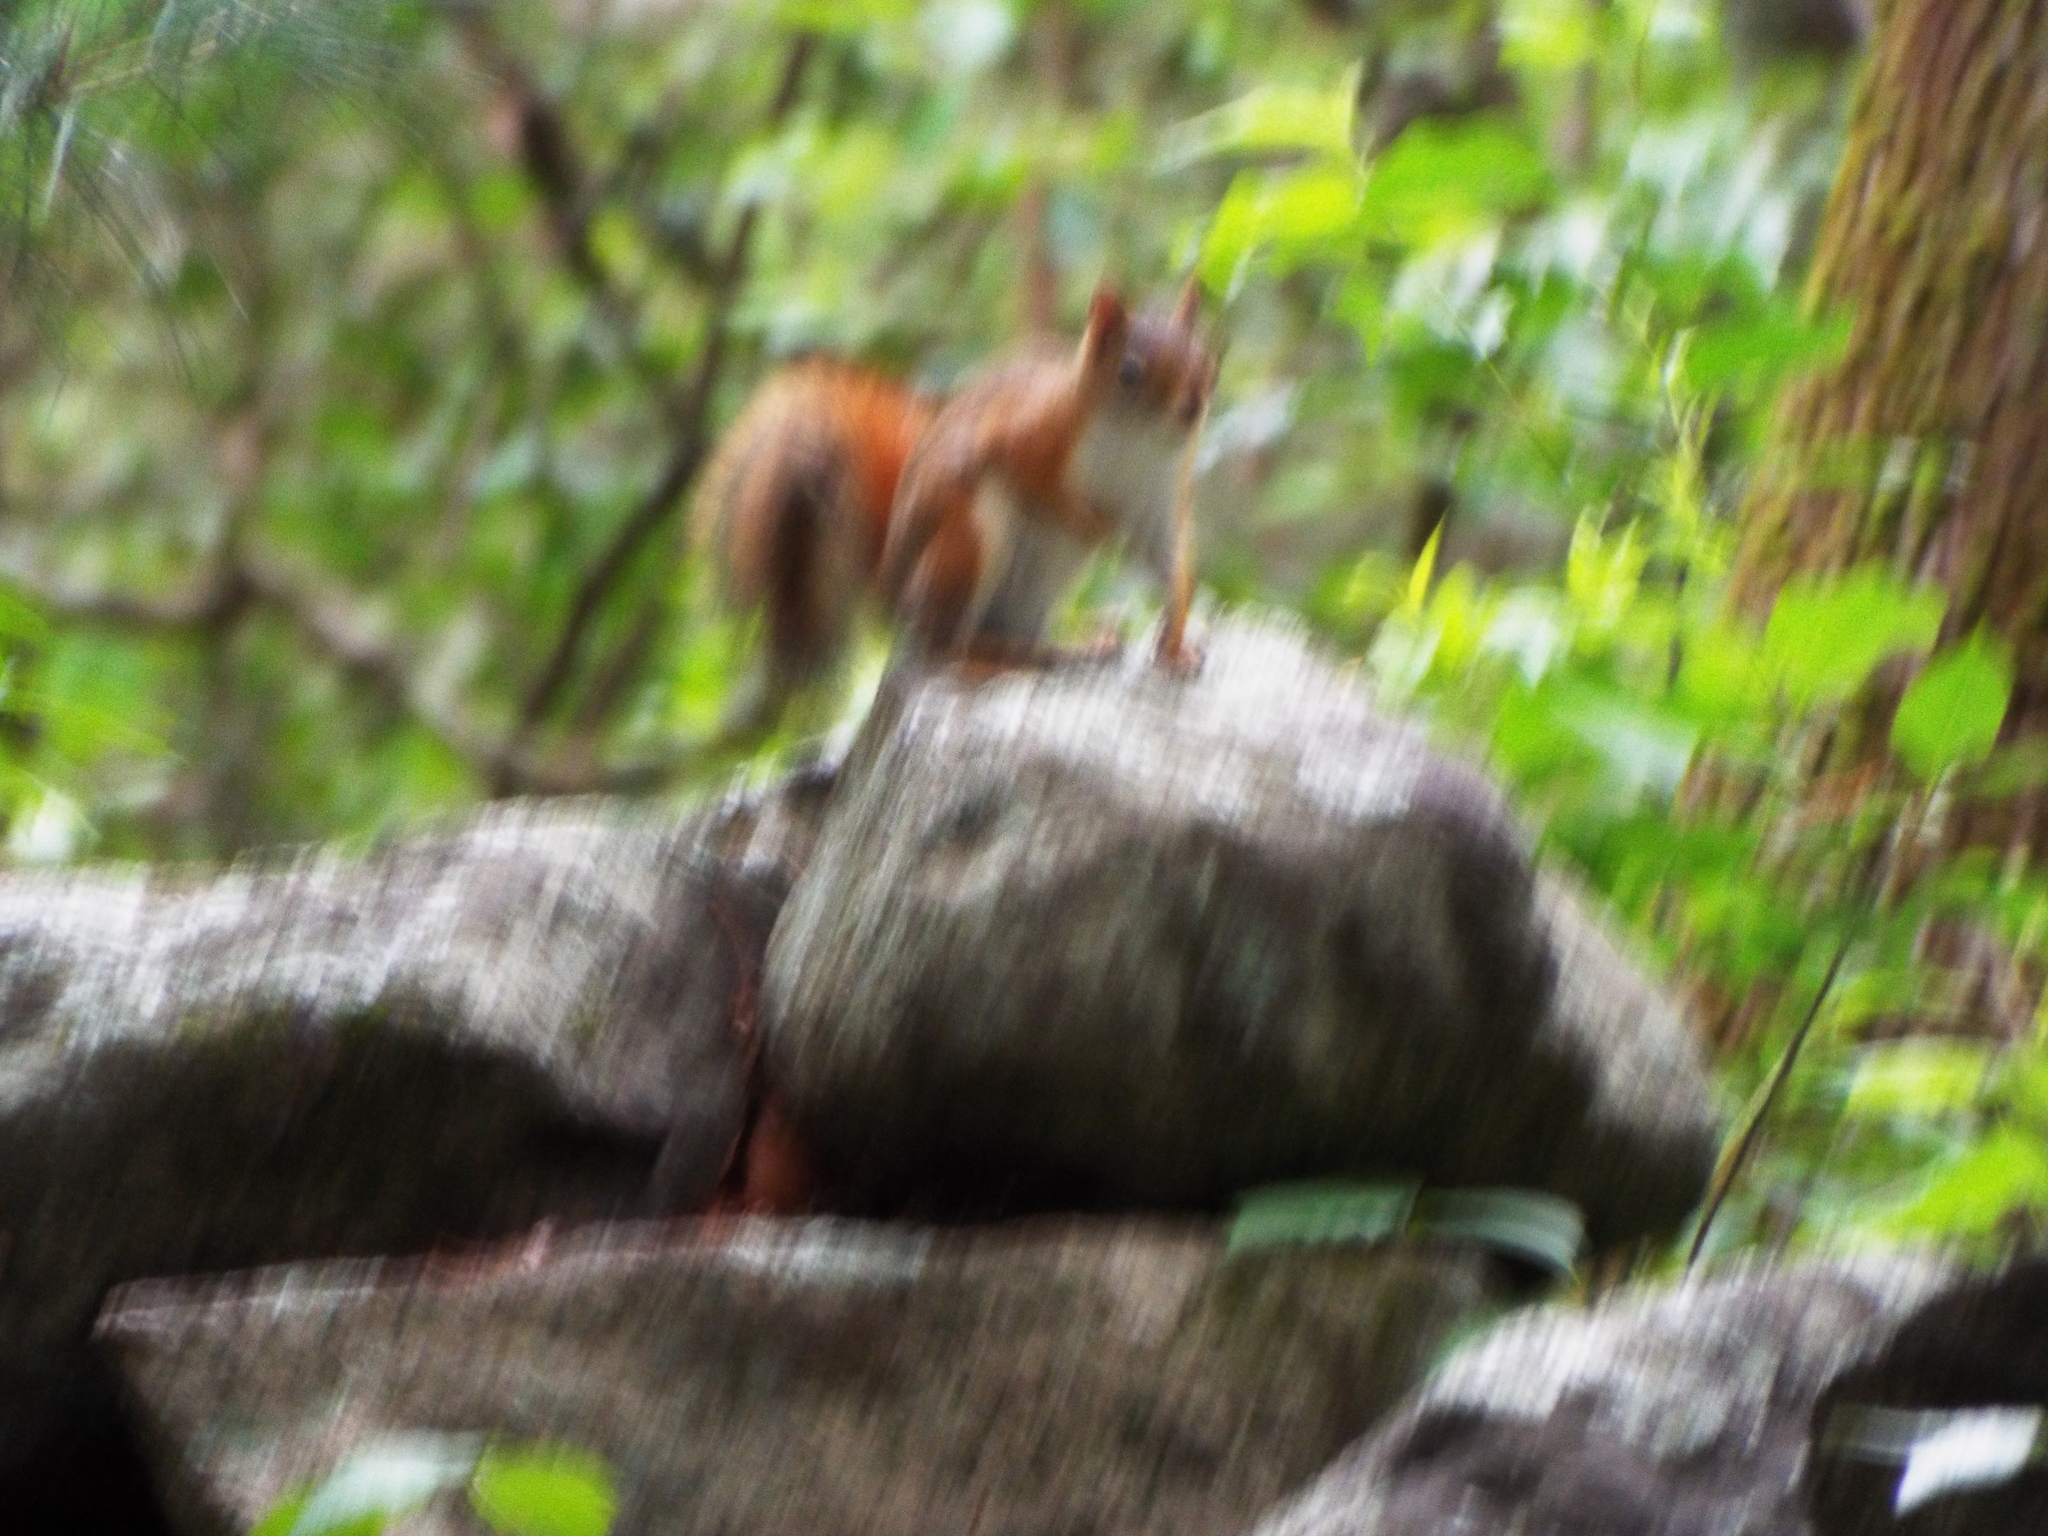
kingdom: Animalia
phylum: Chordata
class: Mammalia
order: Rodentia
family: Sciuridae
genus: Tamiasciurus
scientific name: Tamiasciurus hudsonicus
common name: Red squirrel
